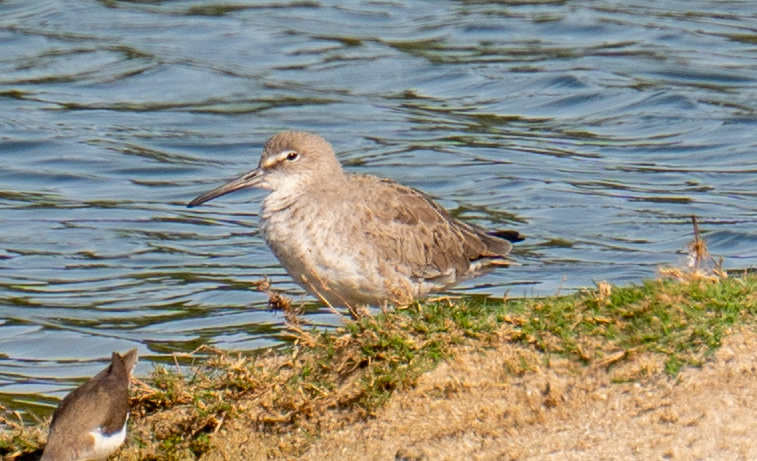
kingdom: Animalia
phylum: Chordata
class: Aves
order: Charadriiformes
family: Scolopacidae
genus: Tringa
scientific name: Tringa semipalmata
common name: Willet
